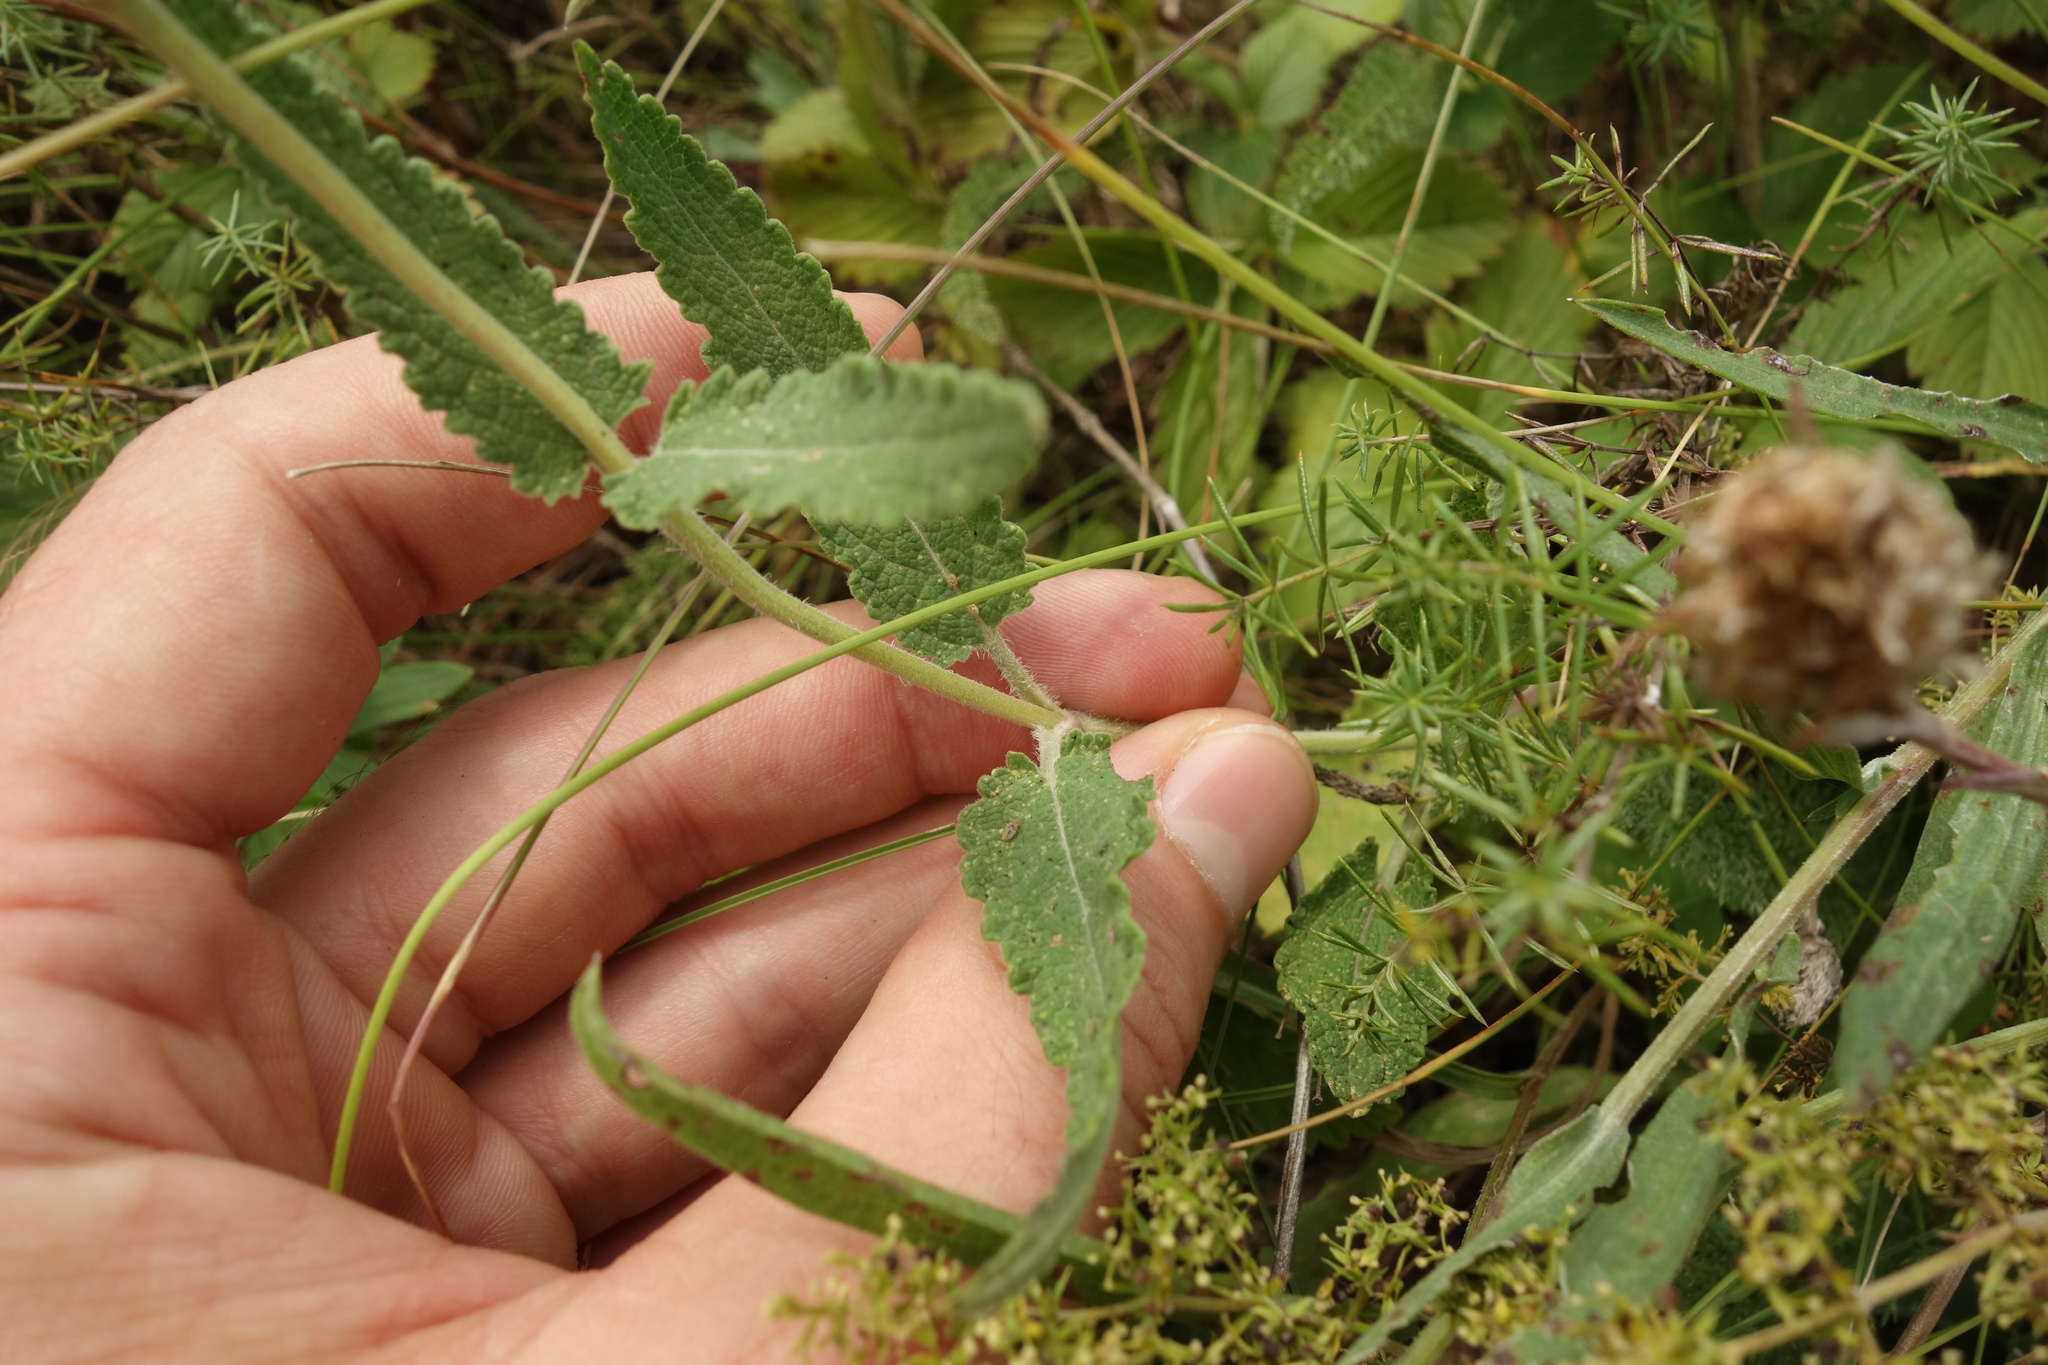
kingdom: Plantae
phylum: Tracheophyta
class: Magnoliopsida
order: Lamiales
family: Lamiaceae
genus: Salvia
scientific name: Salvia nemorosa
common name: Balkan clary
